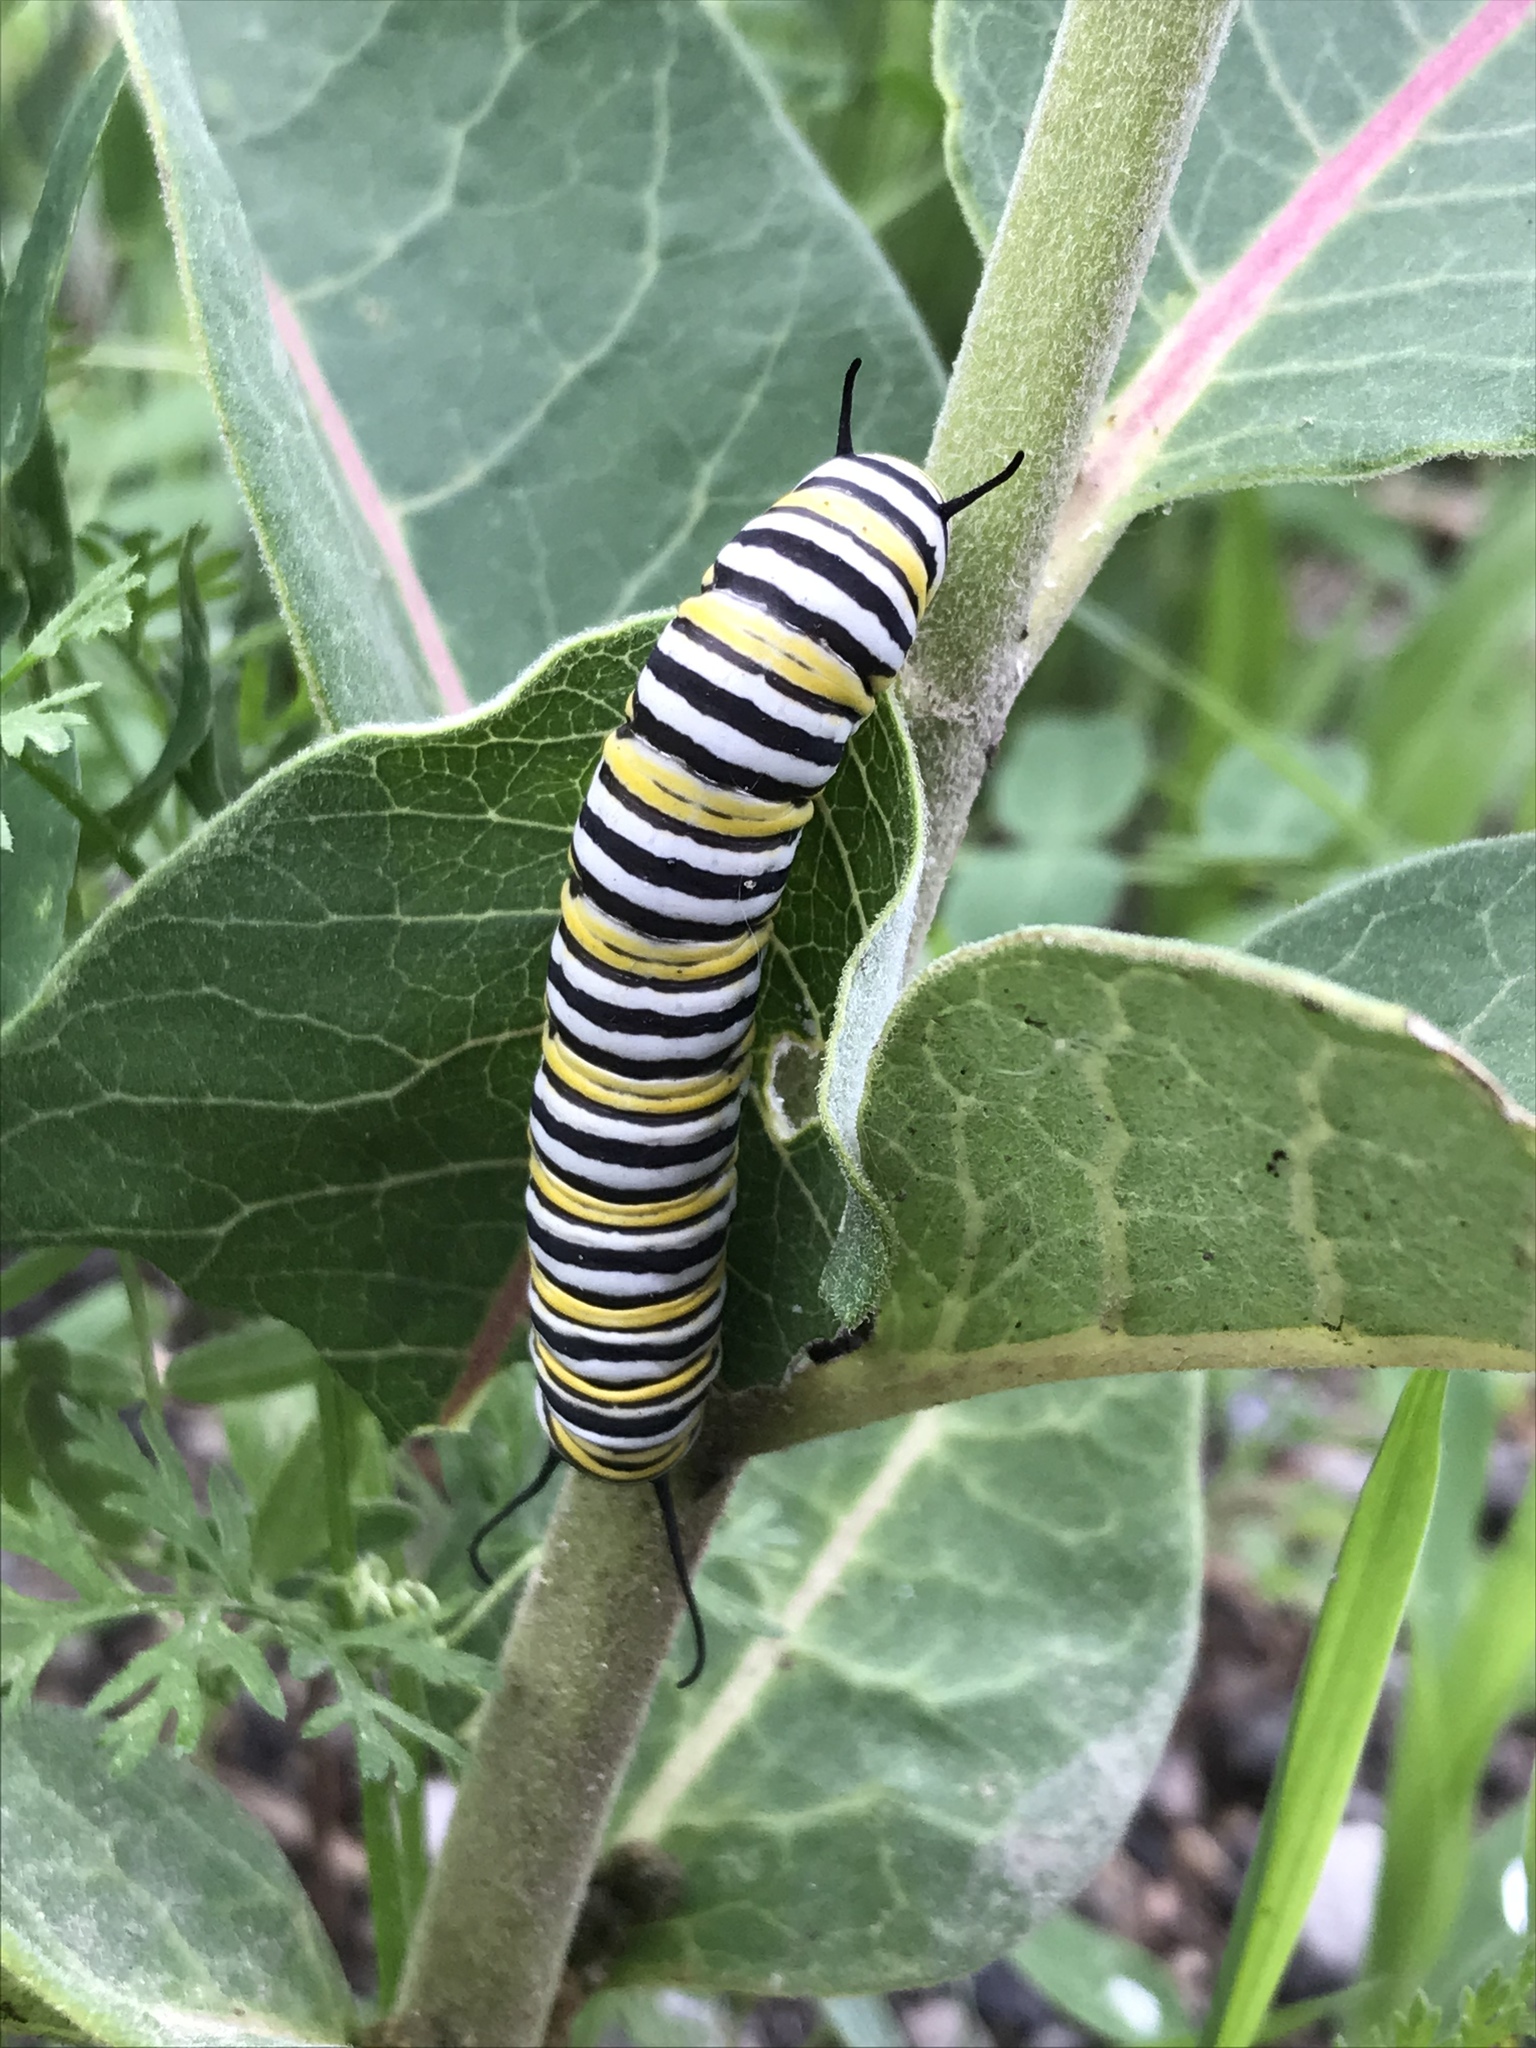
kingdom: Animalia
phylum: Arthropoda
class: Insecta
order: Lepidoptera
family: Nymphalidae
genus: Danaus
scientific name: Danaus plexippus
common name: Monarch
